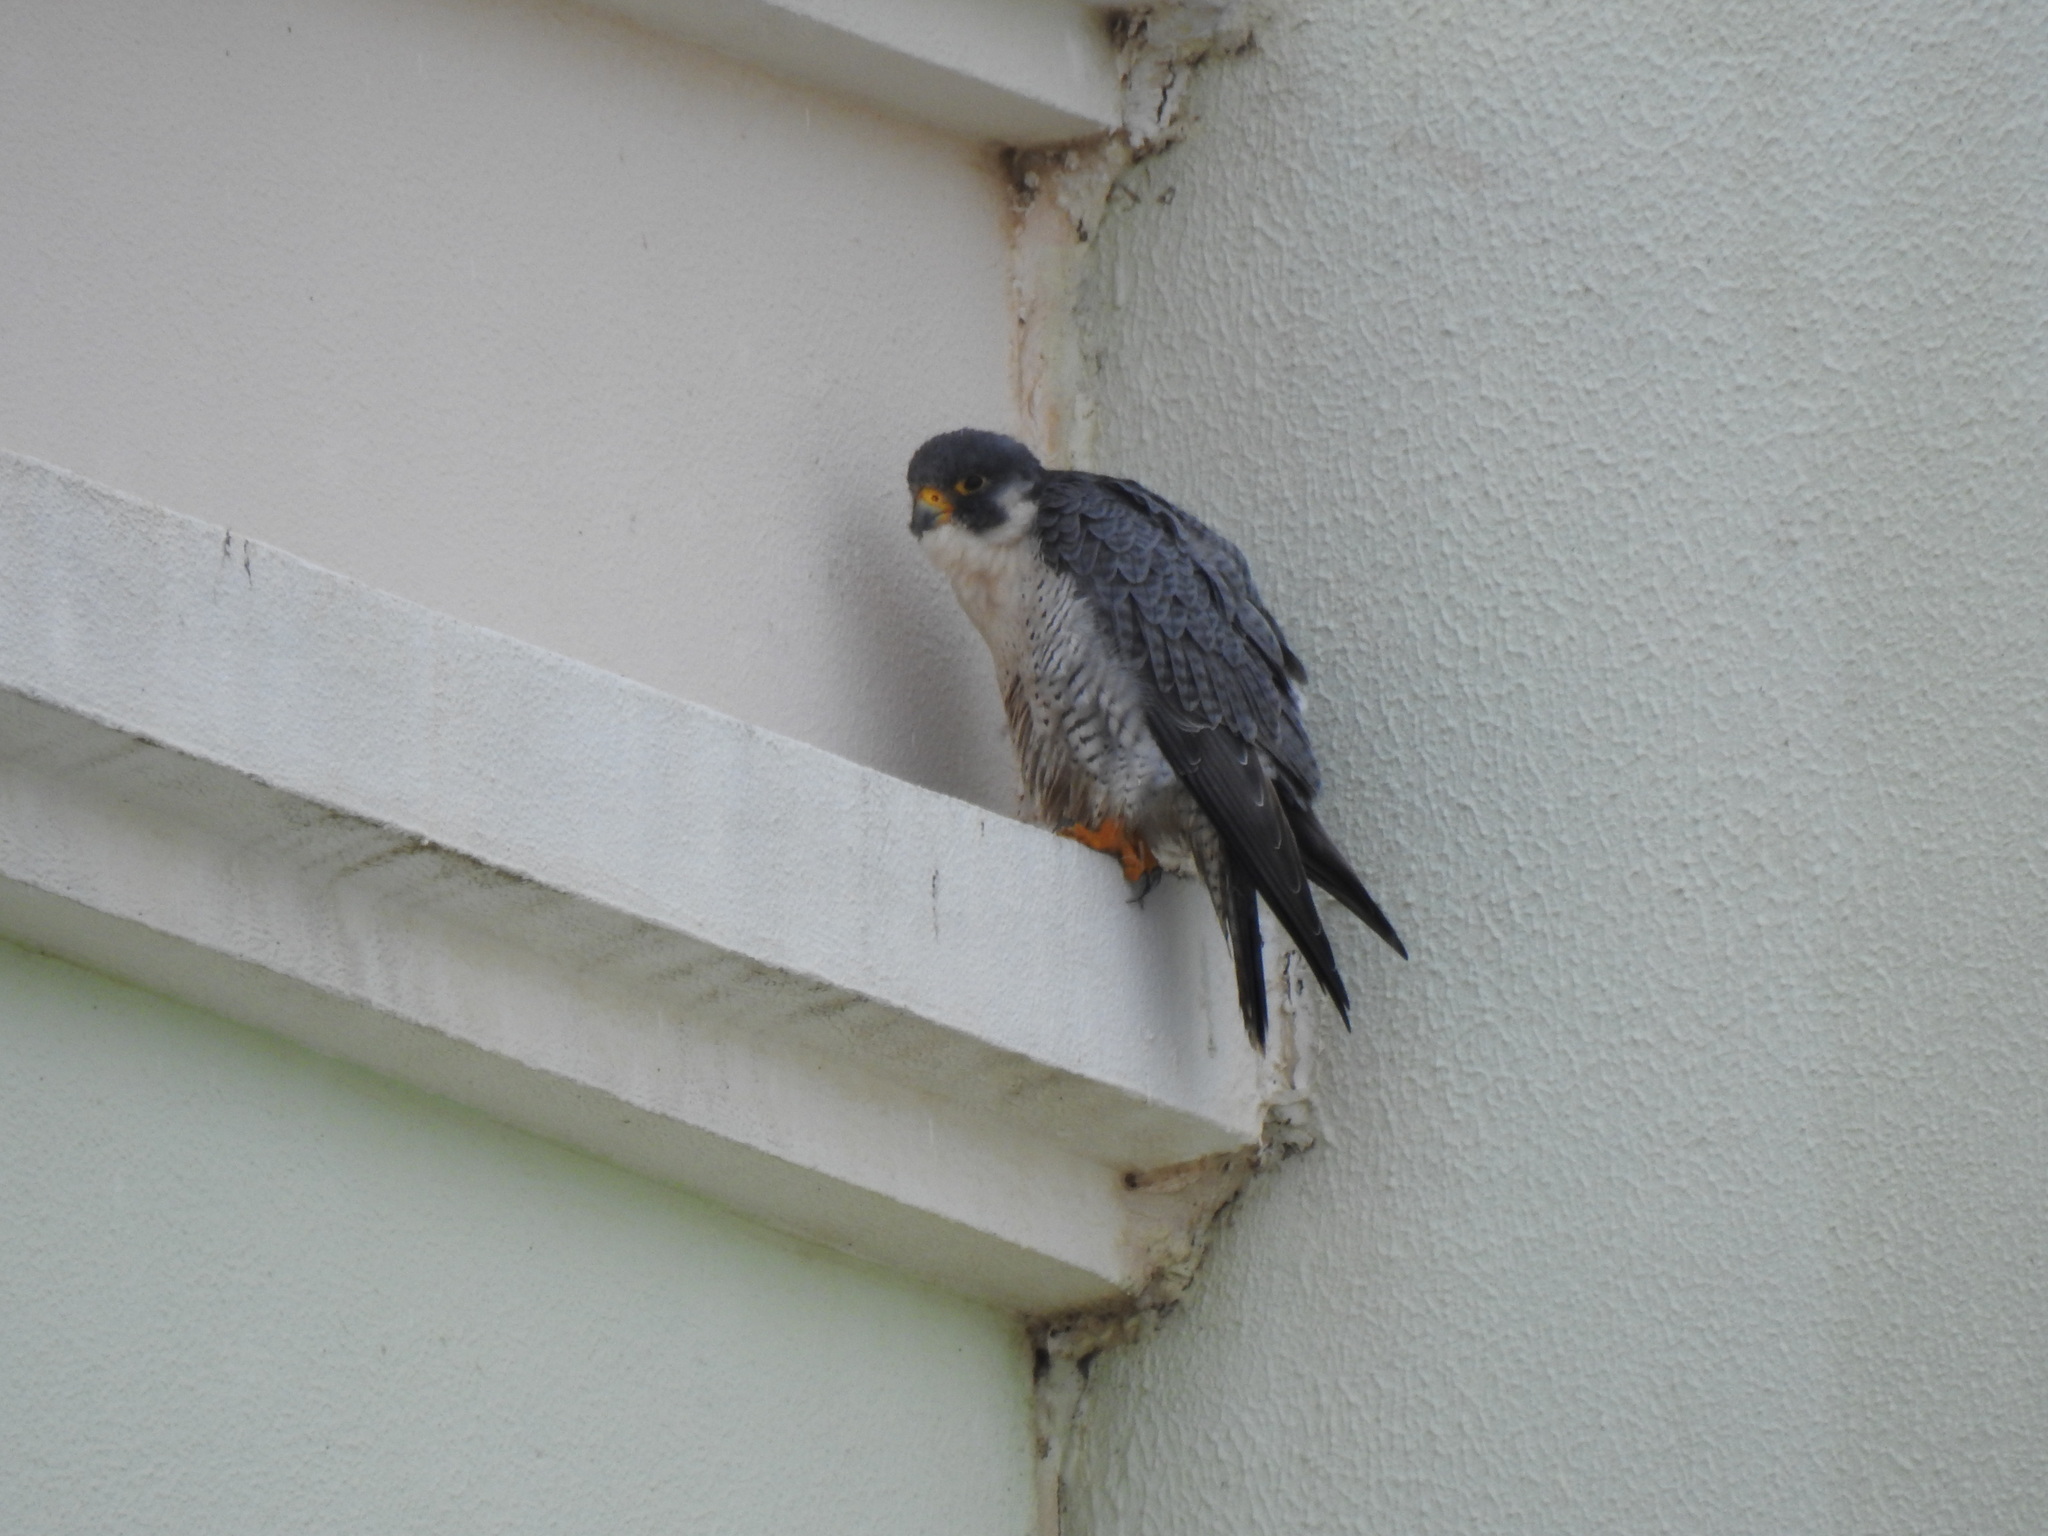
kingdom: Animalia
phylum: Chordata
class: Aves
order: Falconiformes
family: Falconidae
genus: Falco
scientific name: Falco peregrinus
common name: Peregrine falcon
